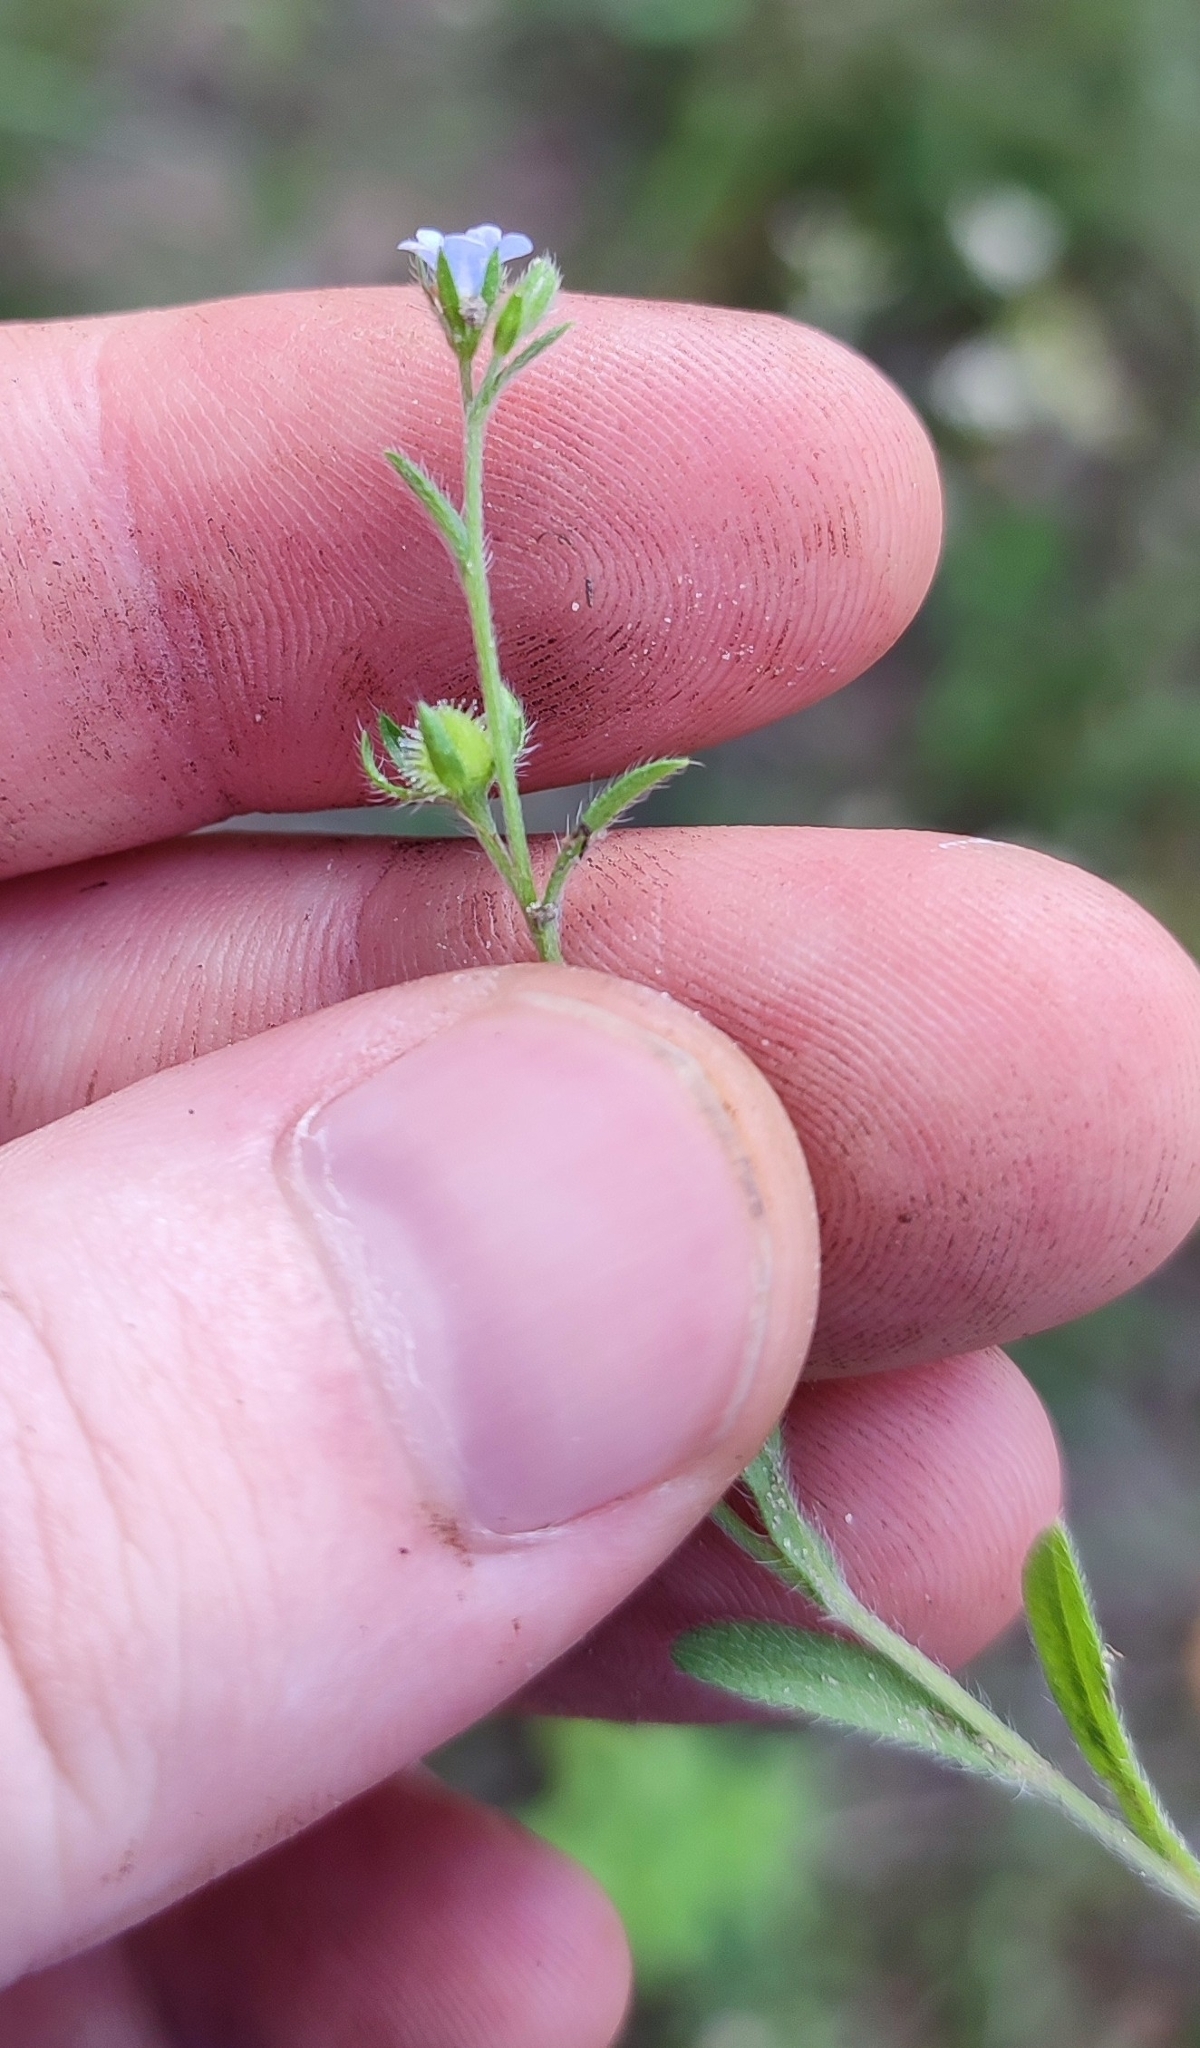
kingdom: Plantae
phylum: Tracheophyta
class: Magnoliopsida
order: Boraginales
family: Boraginaceae
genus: Lappula
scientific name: Lappula squarrosa
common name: European stickseed
